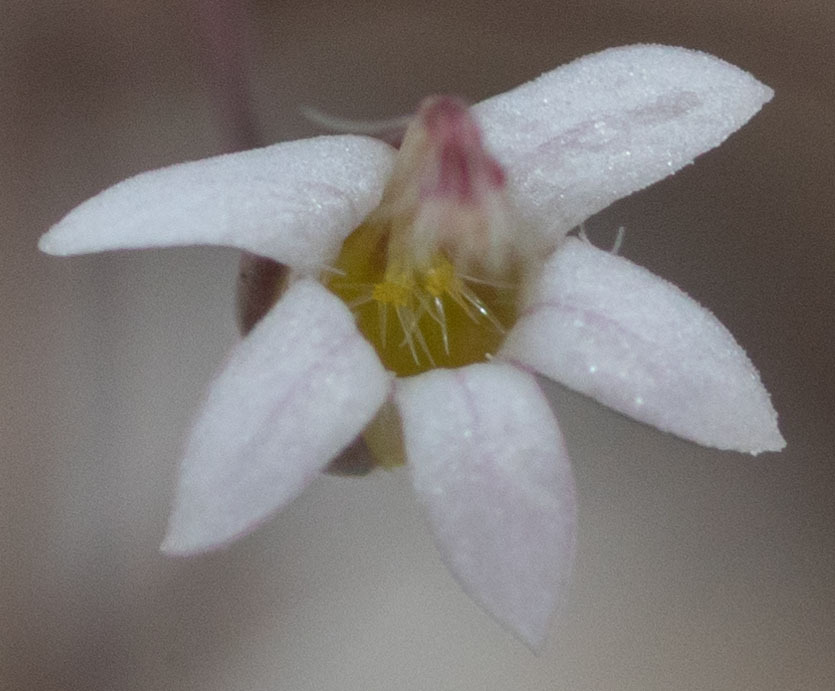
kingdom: Plantae
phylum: Tracheophyta
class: Magnoliopsida
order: Asterales
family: Campanulaceae
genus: Nemacladus
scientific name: Nemacladus secundiflorus
